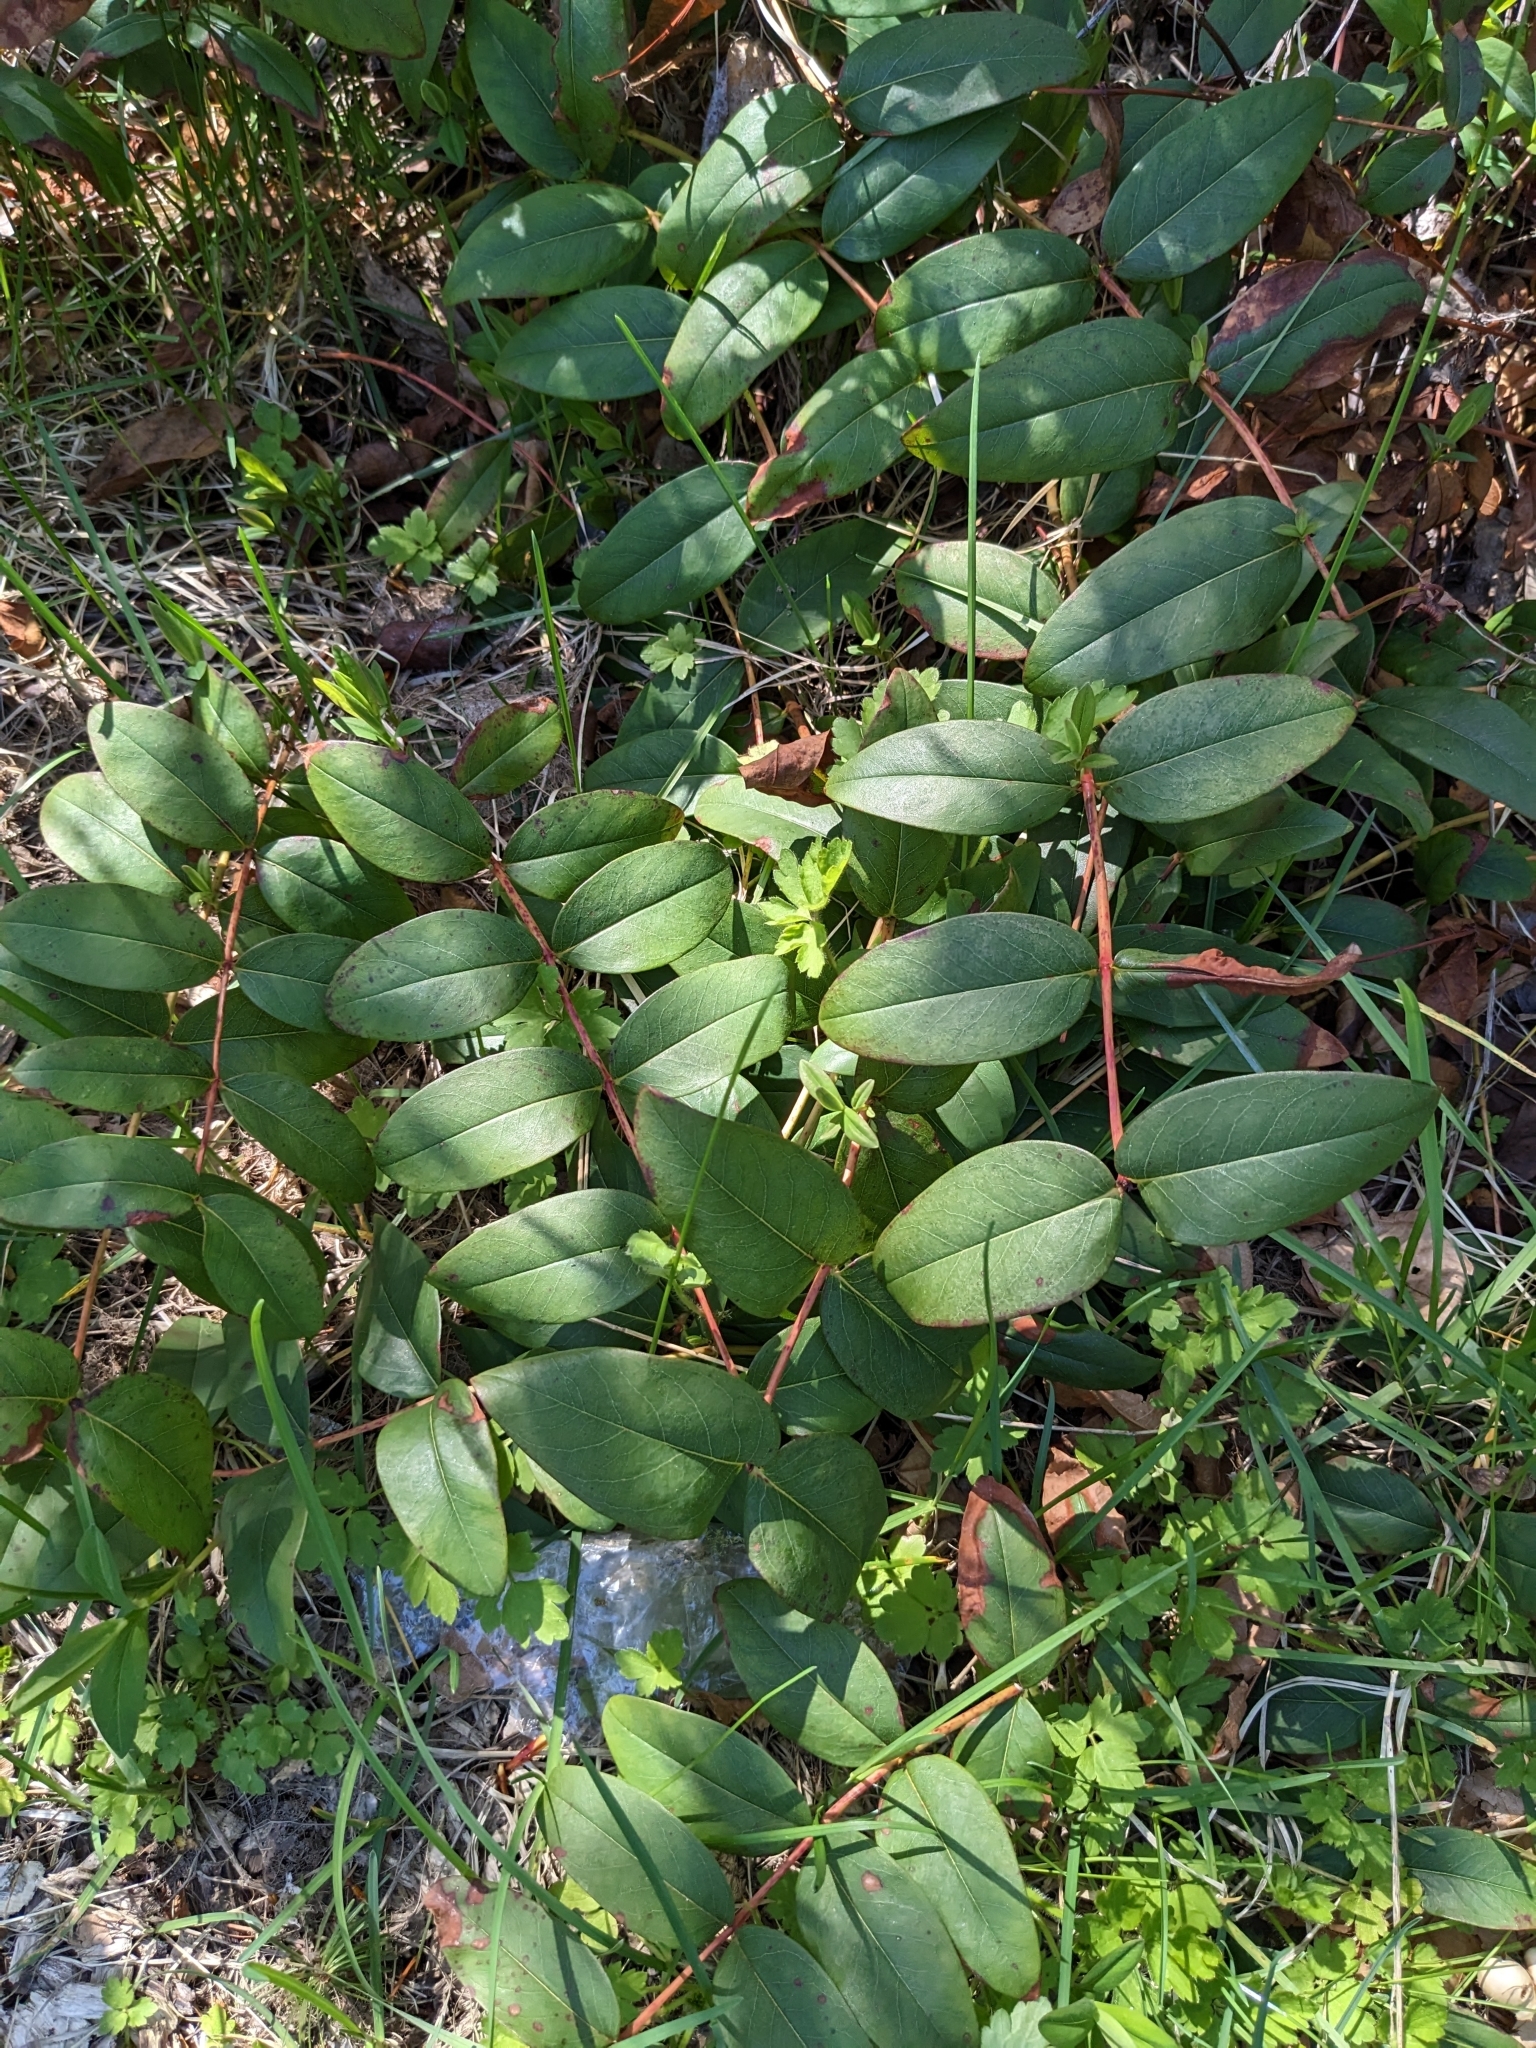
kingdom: Plantae
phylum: Tracheophyta
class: Magnoliopsida
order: Malpighiales
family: Hypericaceae
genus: Hypericum
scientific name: Hypericum calycinum
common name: Rose-of-sharon
